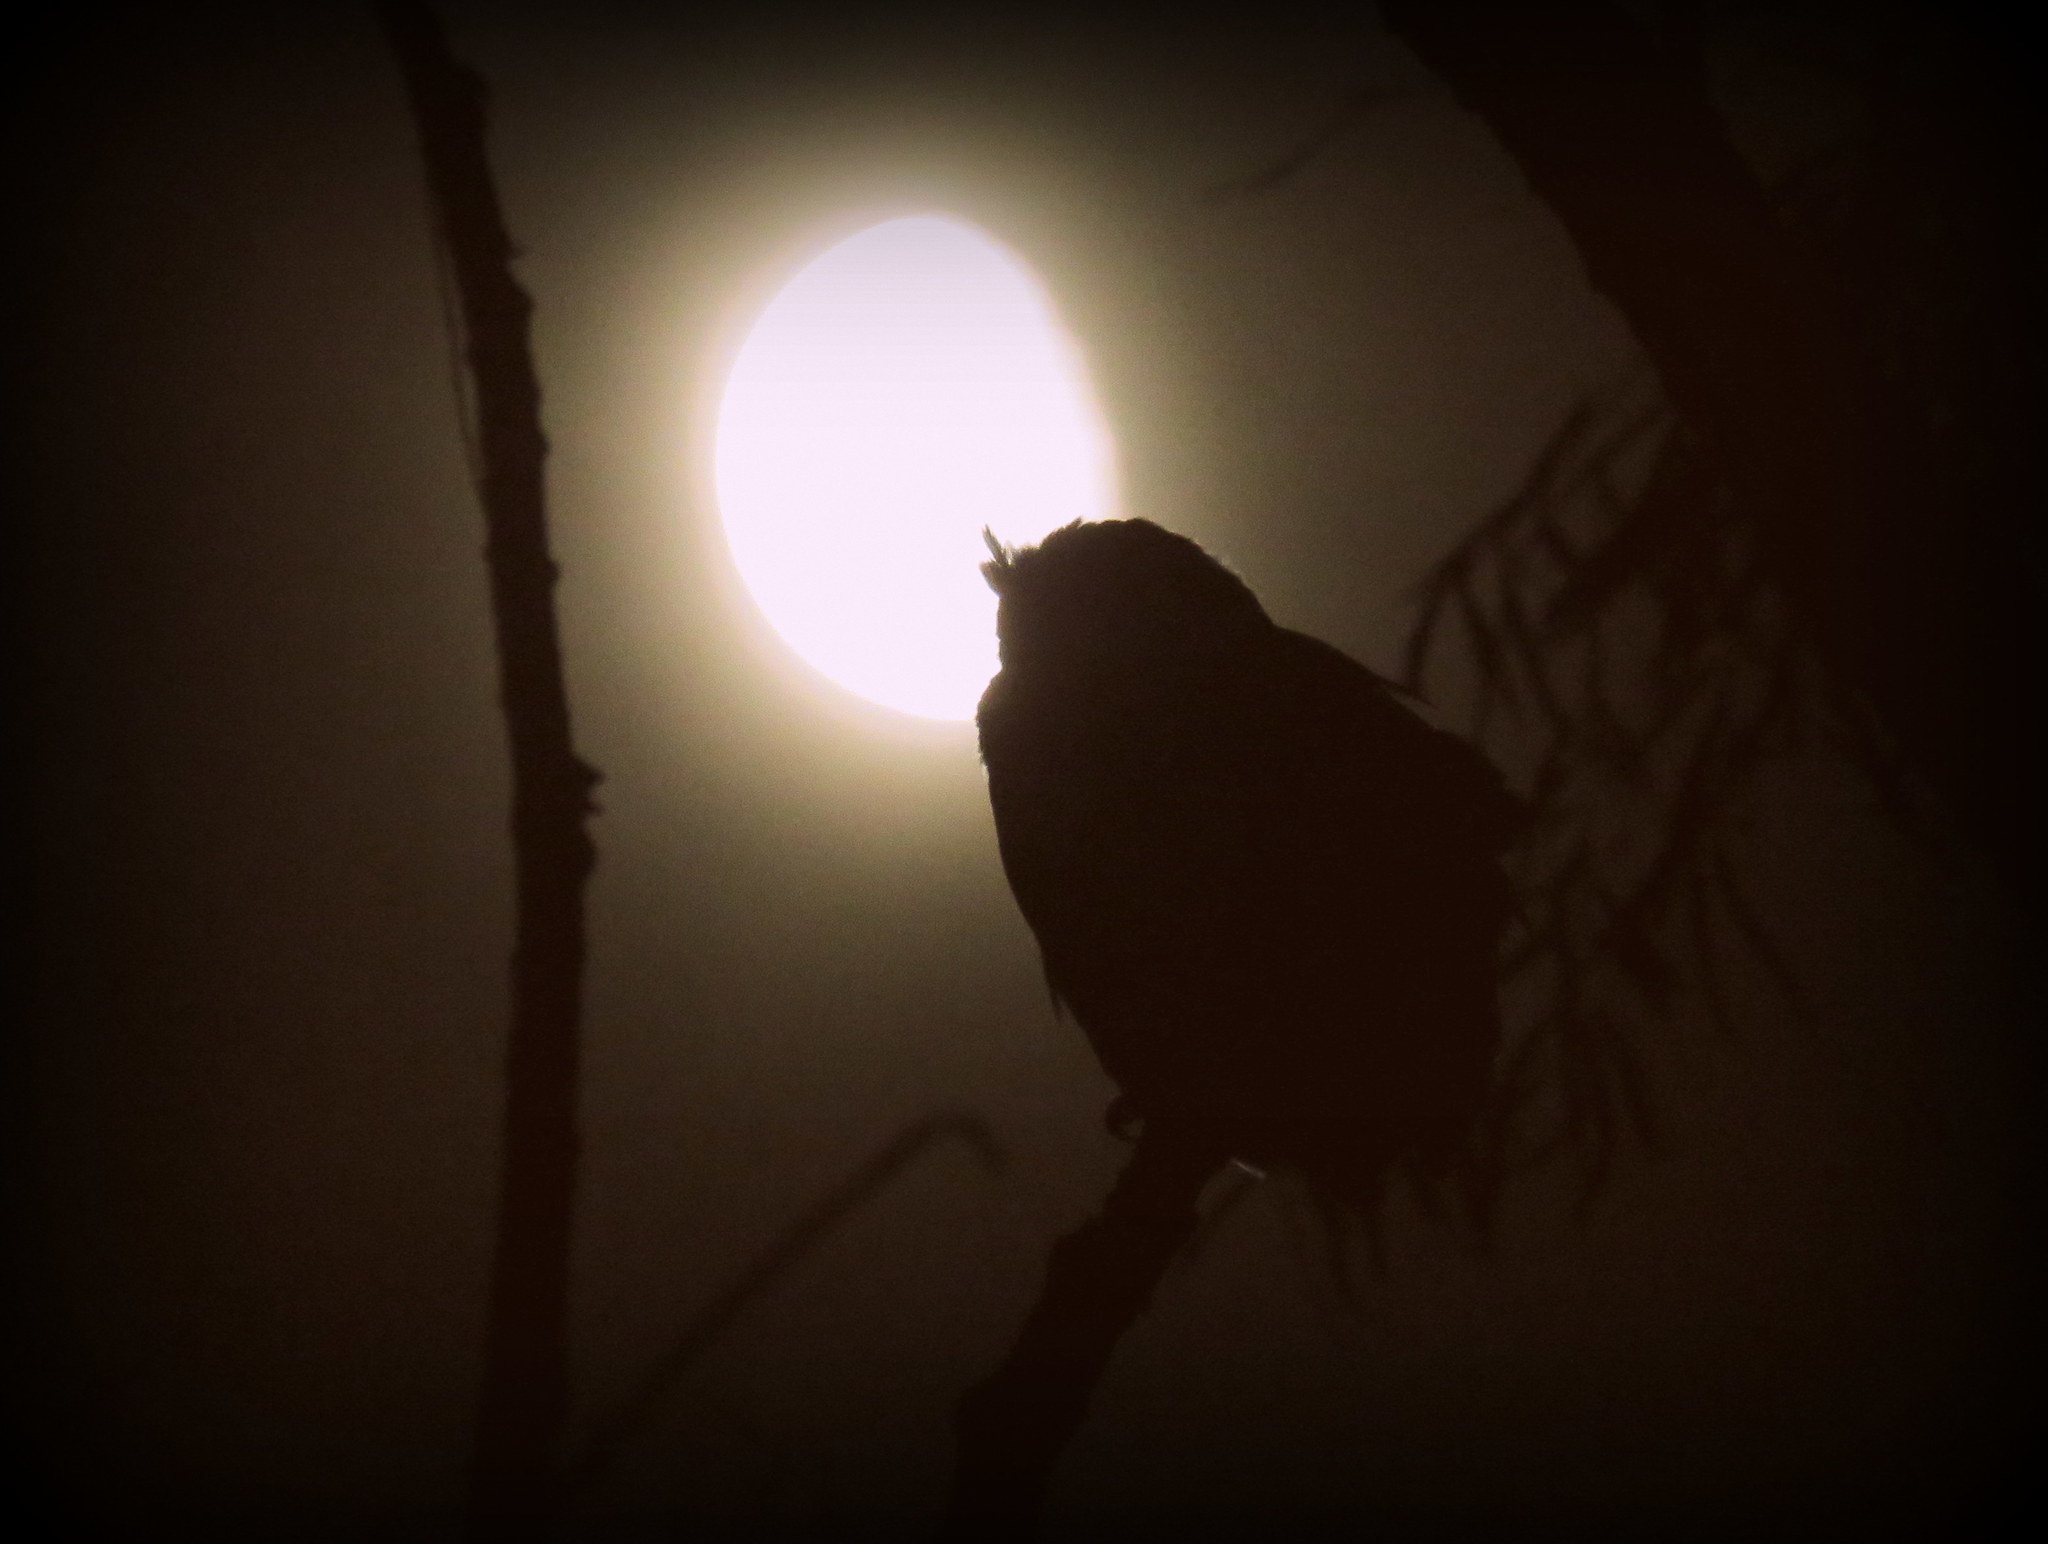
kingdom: Animalia
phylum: Chordata
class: Aves
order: Strigiformes
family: Strigidae
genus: Bubo
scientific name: Bubo virginianus
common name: Great horned owl
